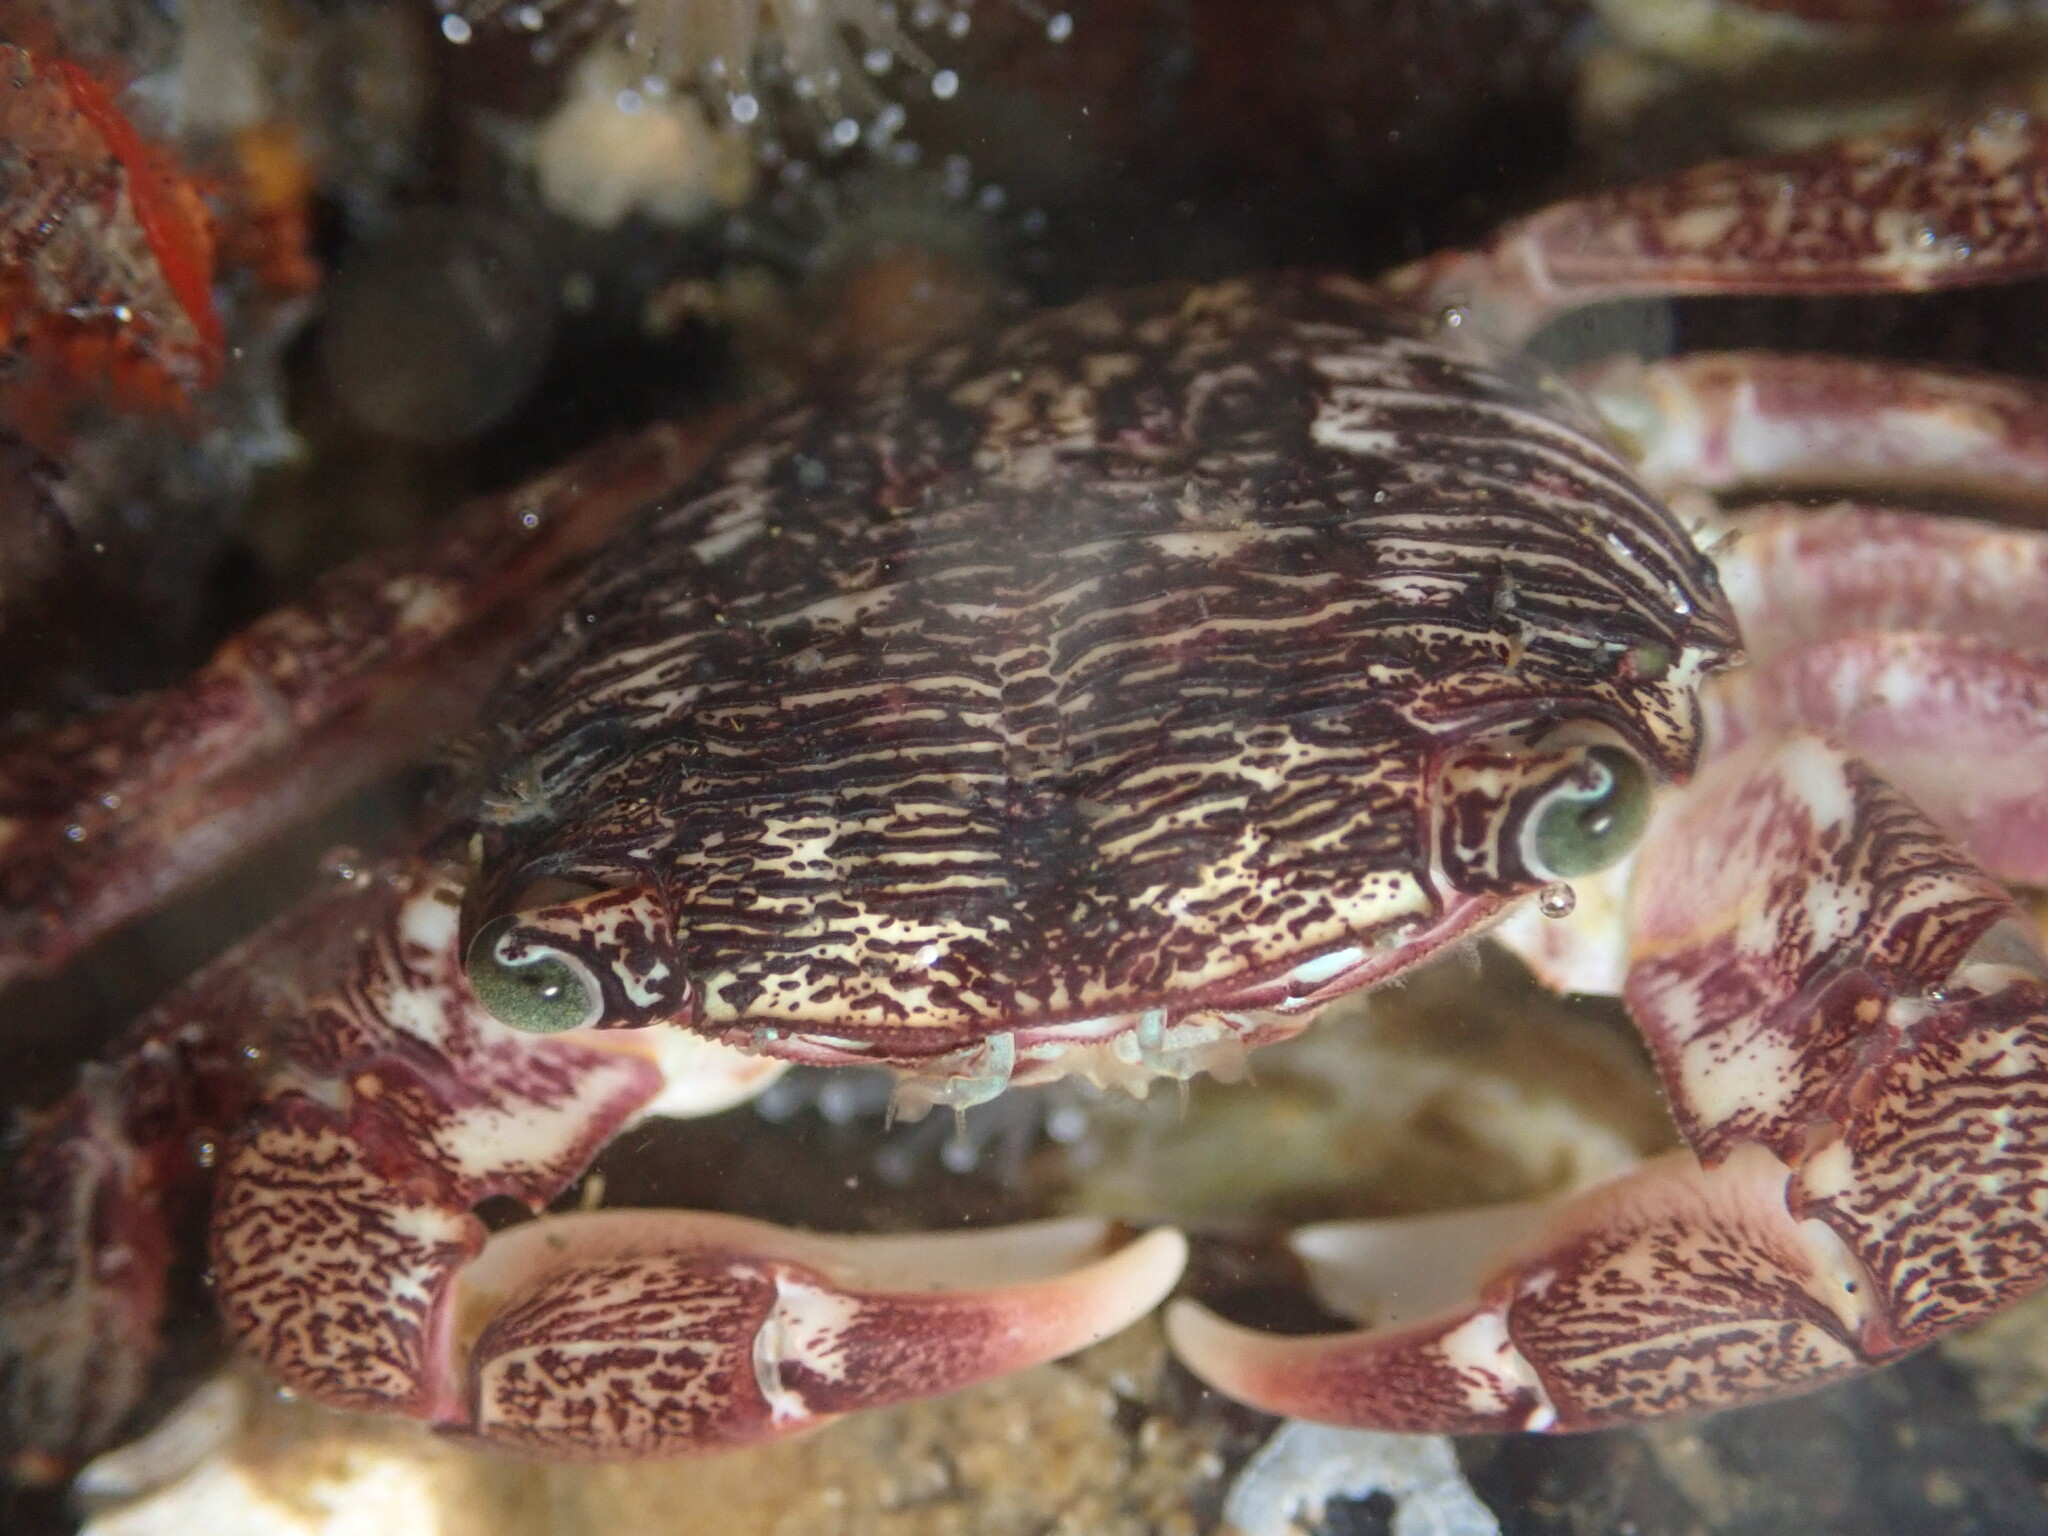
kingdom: Animalia
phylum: Arthropoda
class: Malacostraca
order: Decapoda
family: Grapsidae
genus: Pachygrapsus
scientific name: Pachygrapsus crassipes
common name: Striped shore crab
